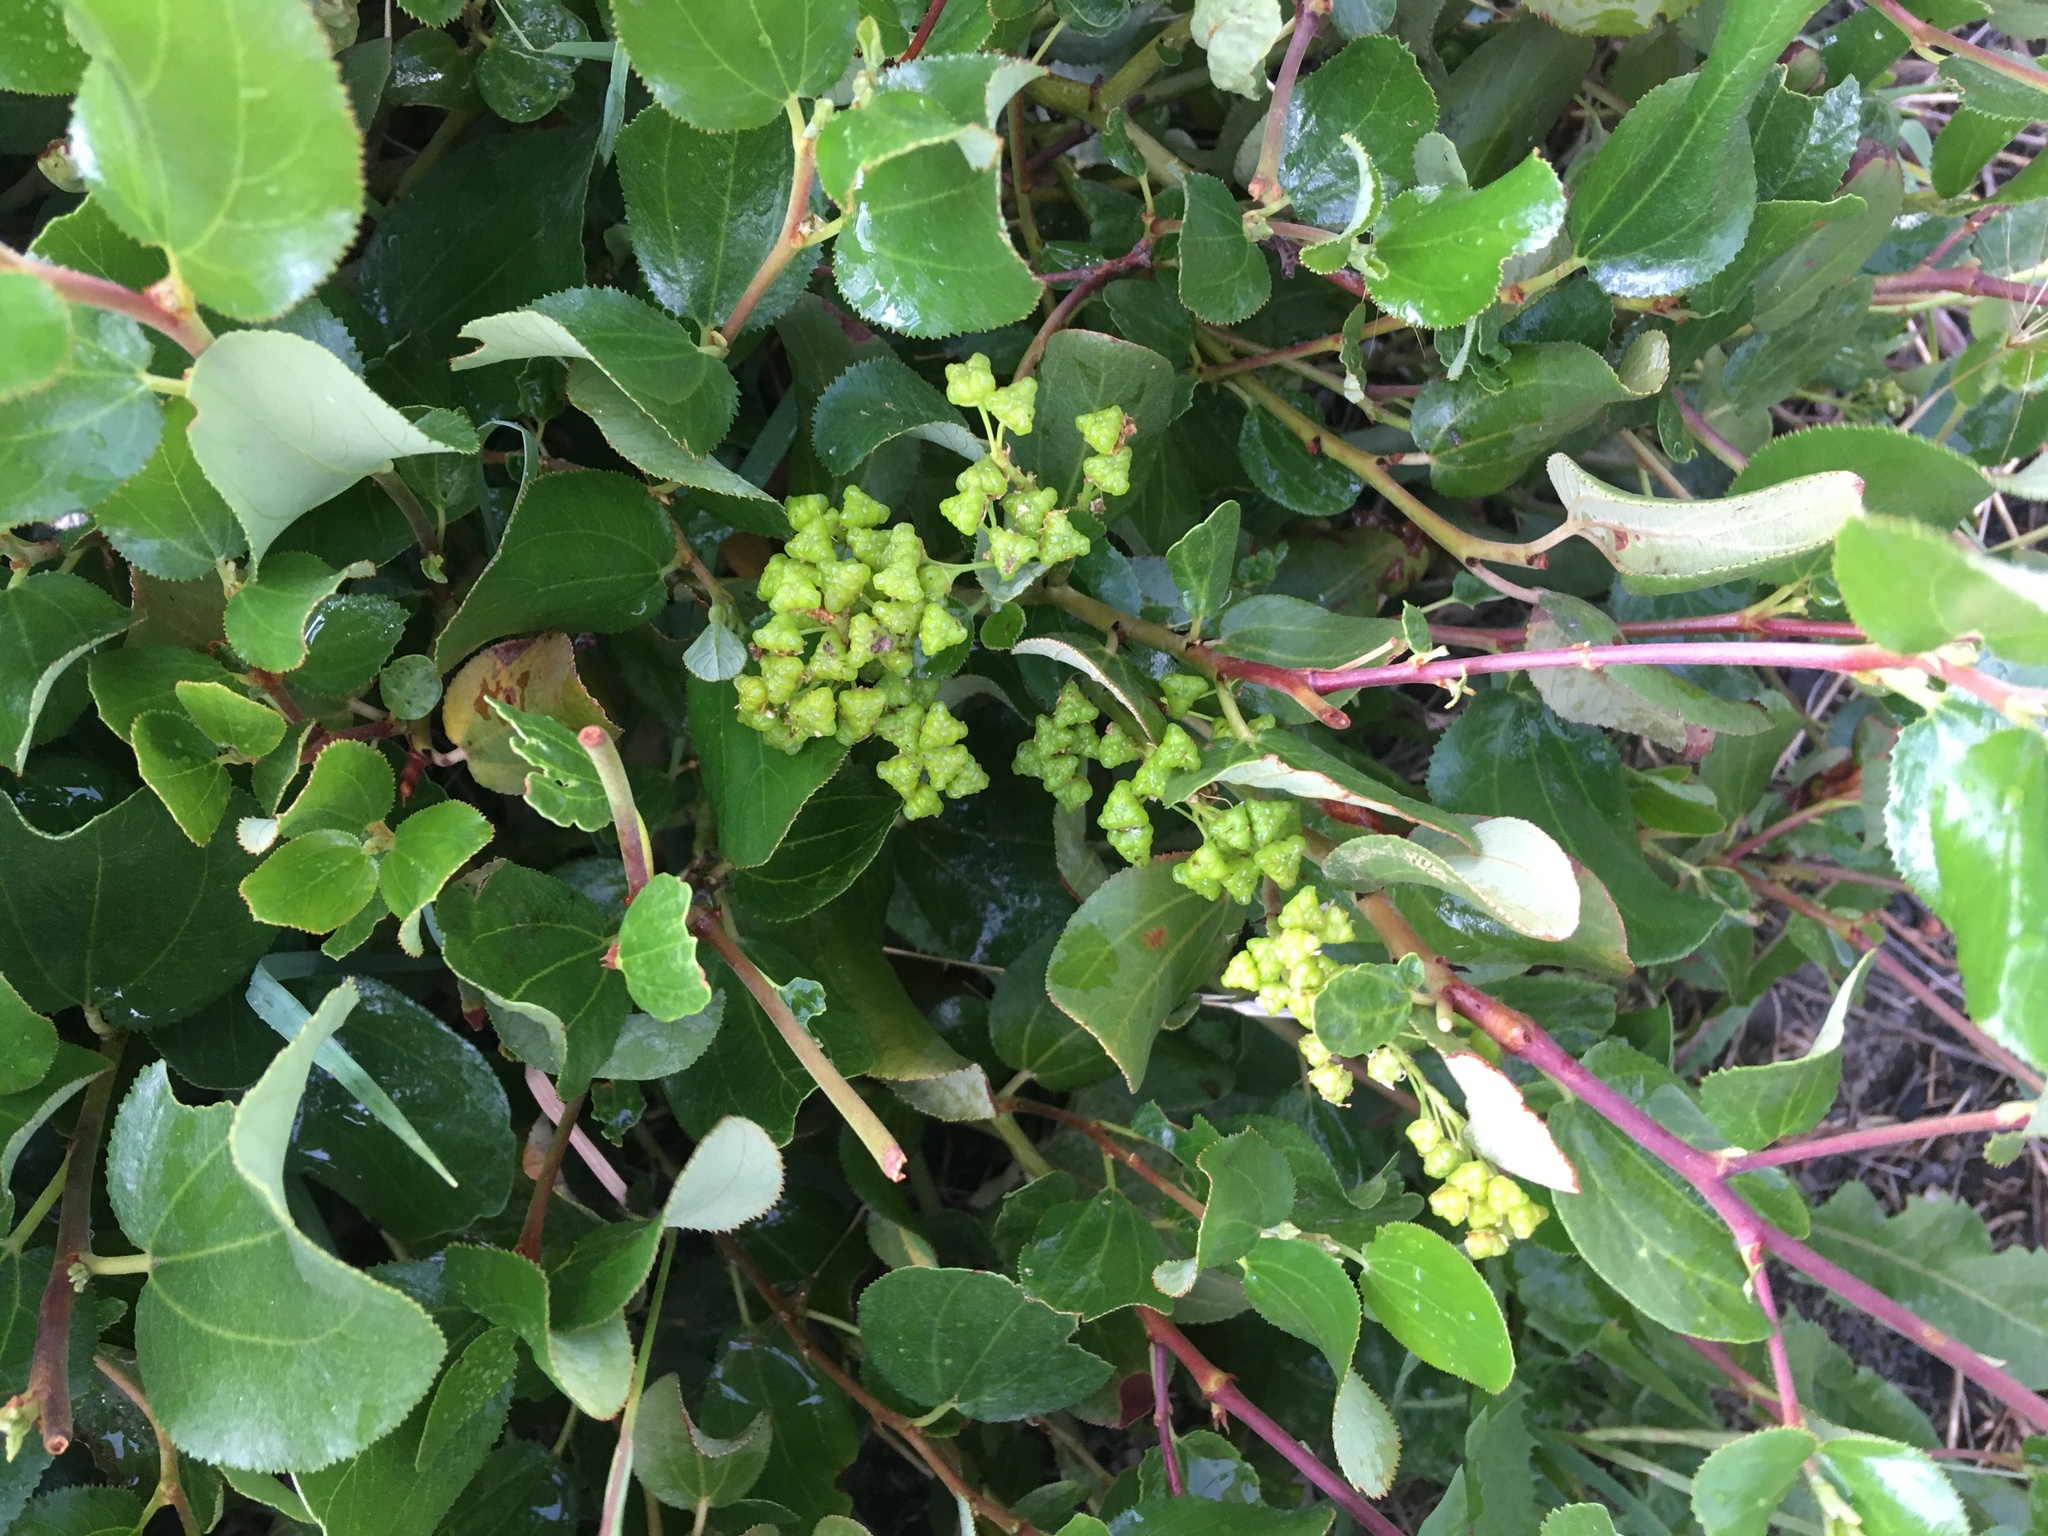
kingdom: Plantae
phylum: Tracheophyta
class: Magnoliopsida
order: Rosales
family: Rhamnaceae
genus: Ceanothus
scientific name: Ceanothus velutinus
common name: Snowbrush
